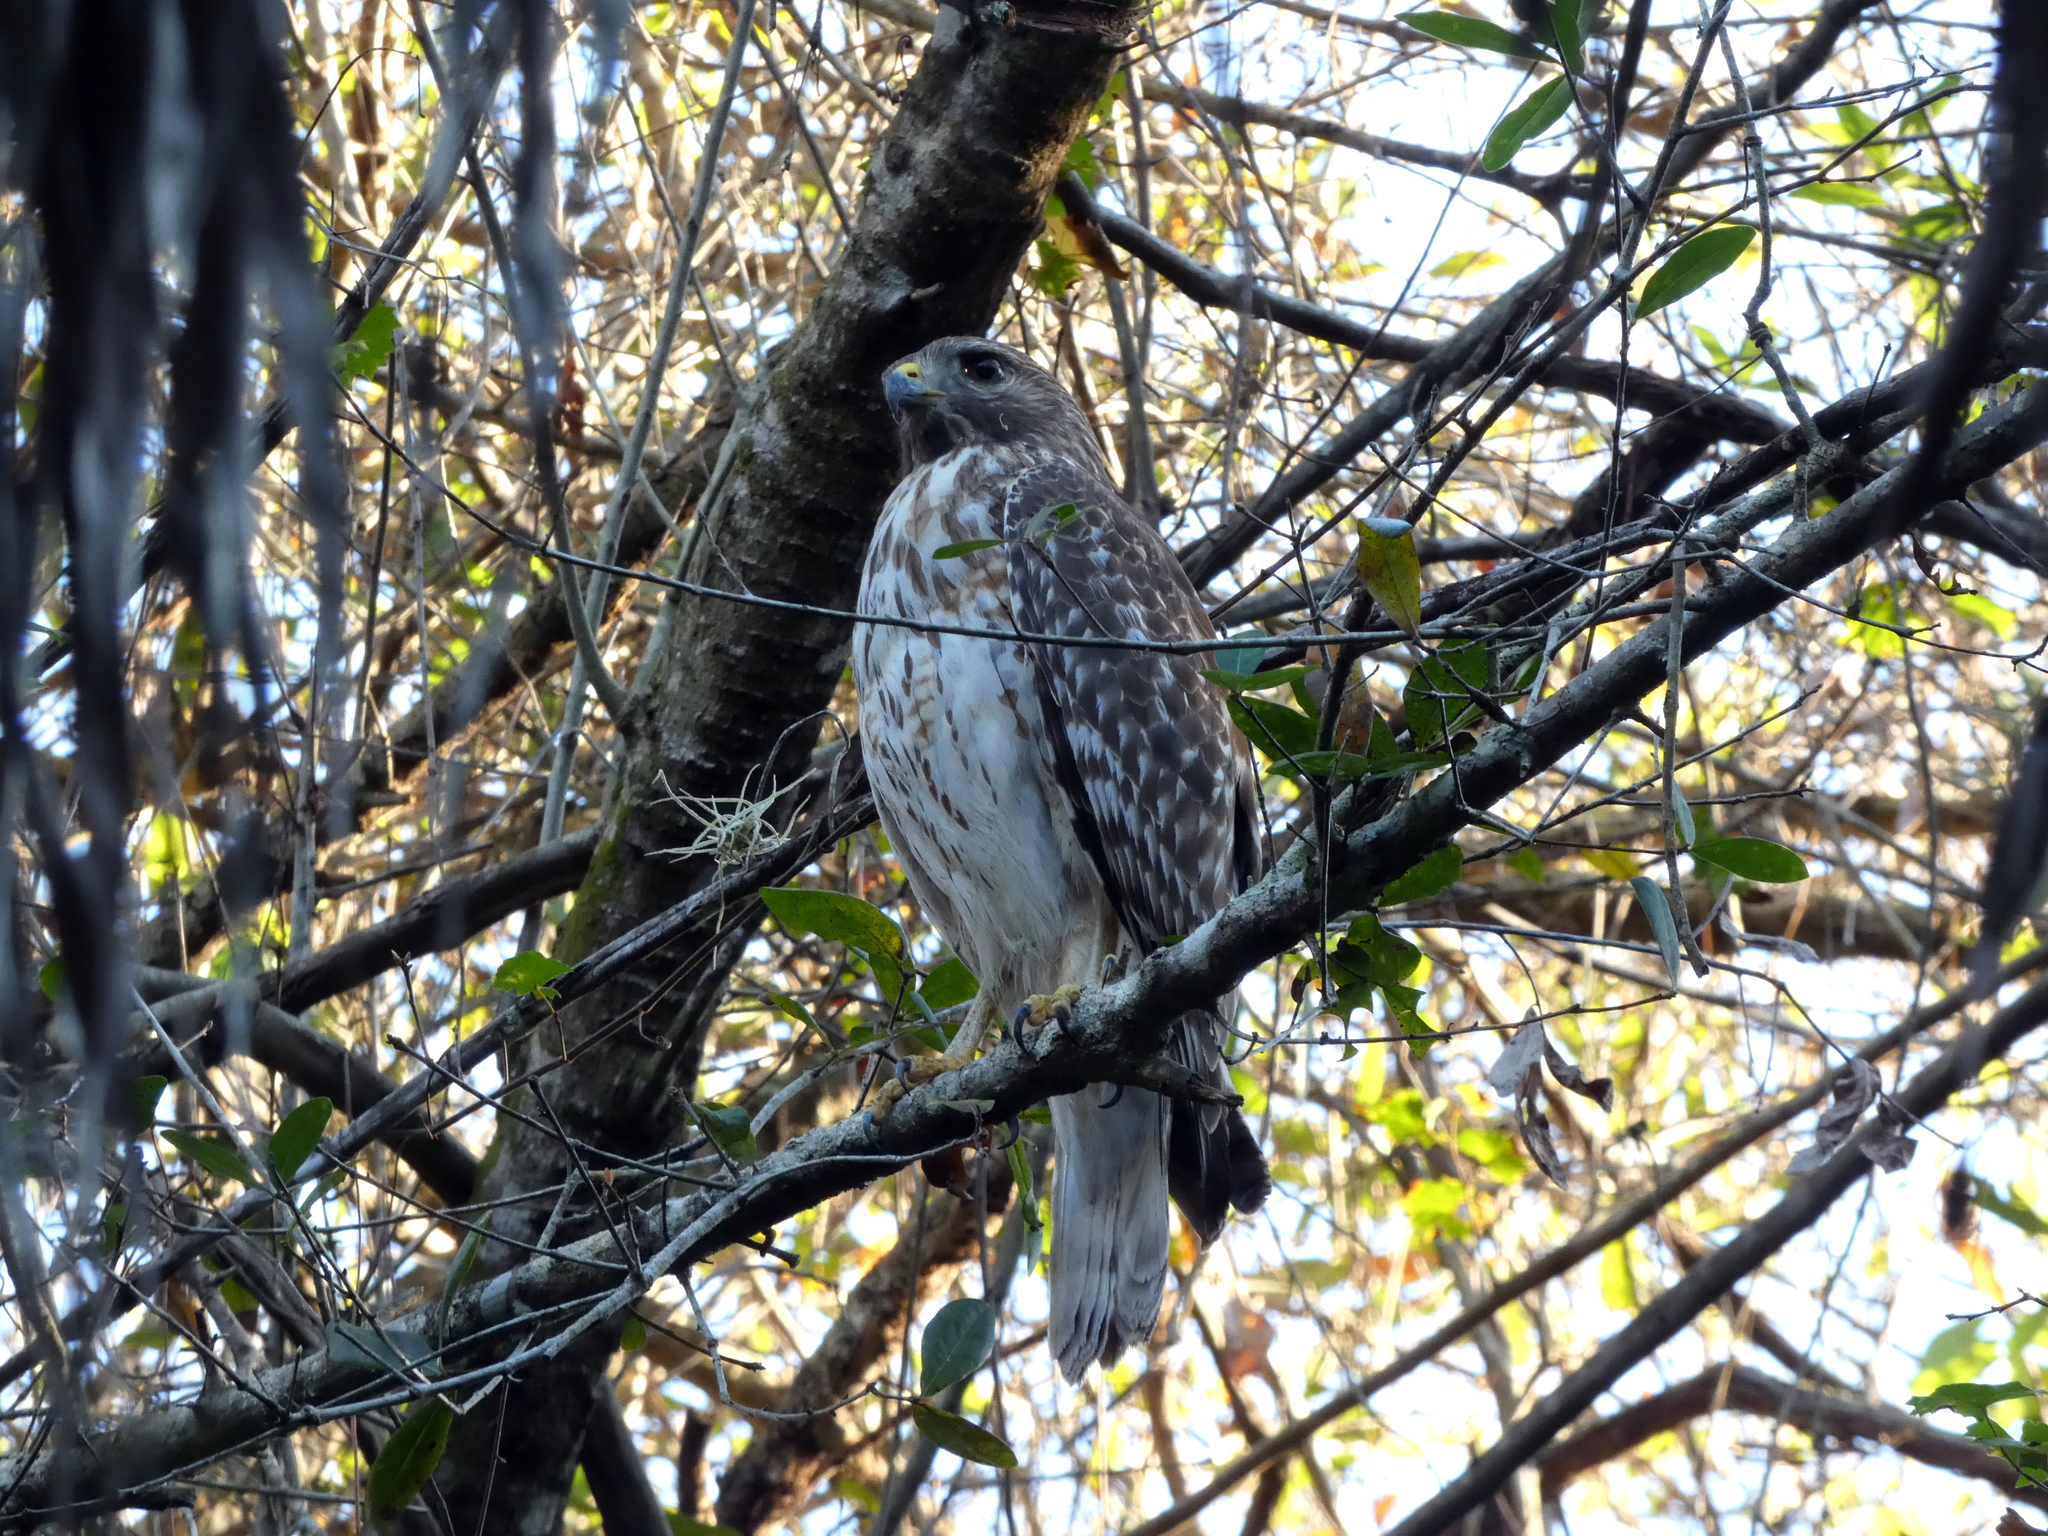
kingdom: Animalia
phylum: Chordata
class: Aves
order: Accipitriformes
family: Accipitridae
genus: Buteo
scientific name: Buteo lineatus
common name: Red-shouldered hawk
